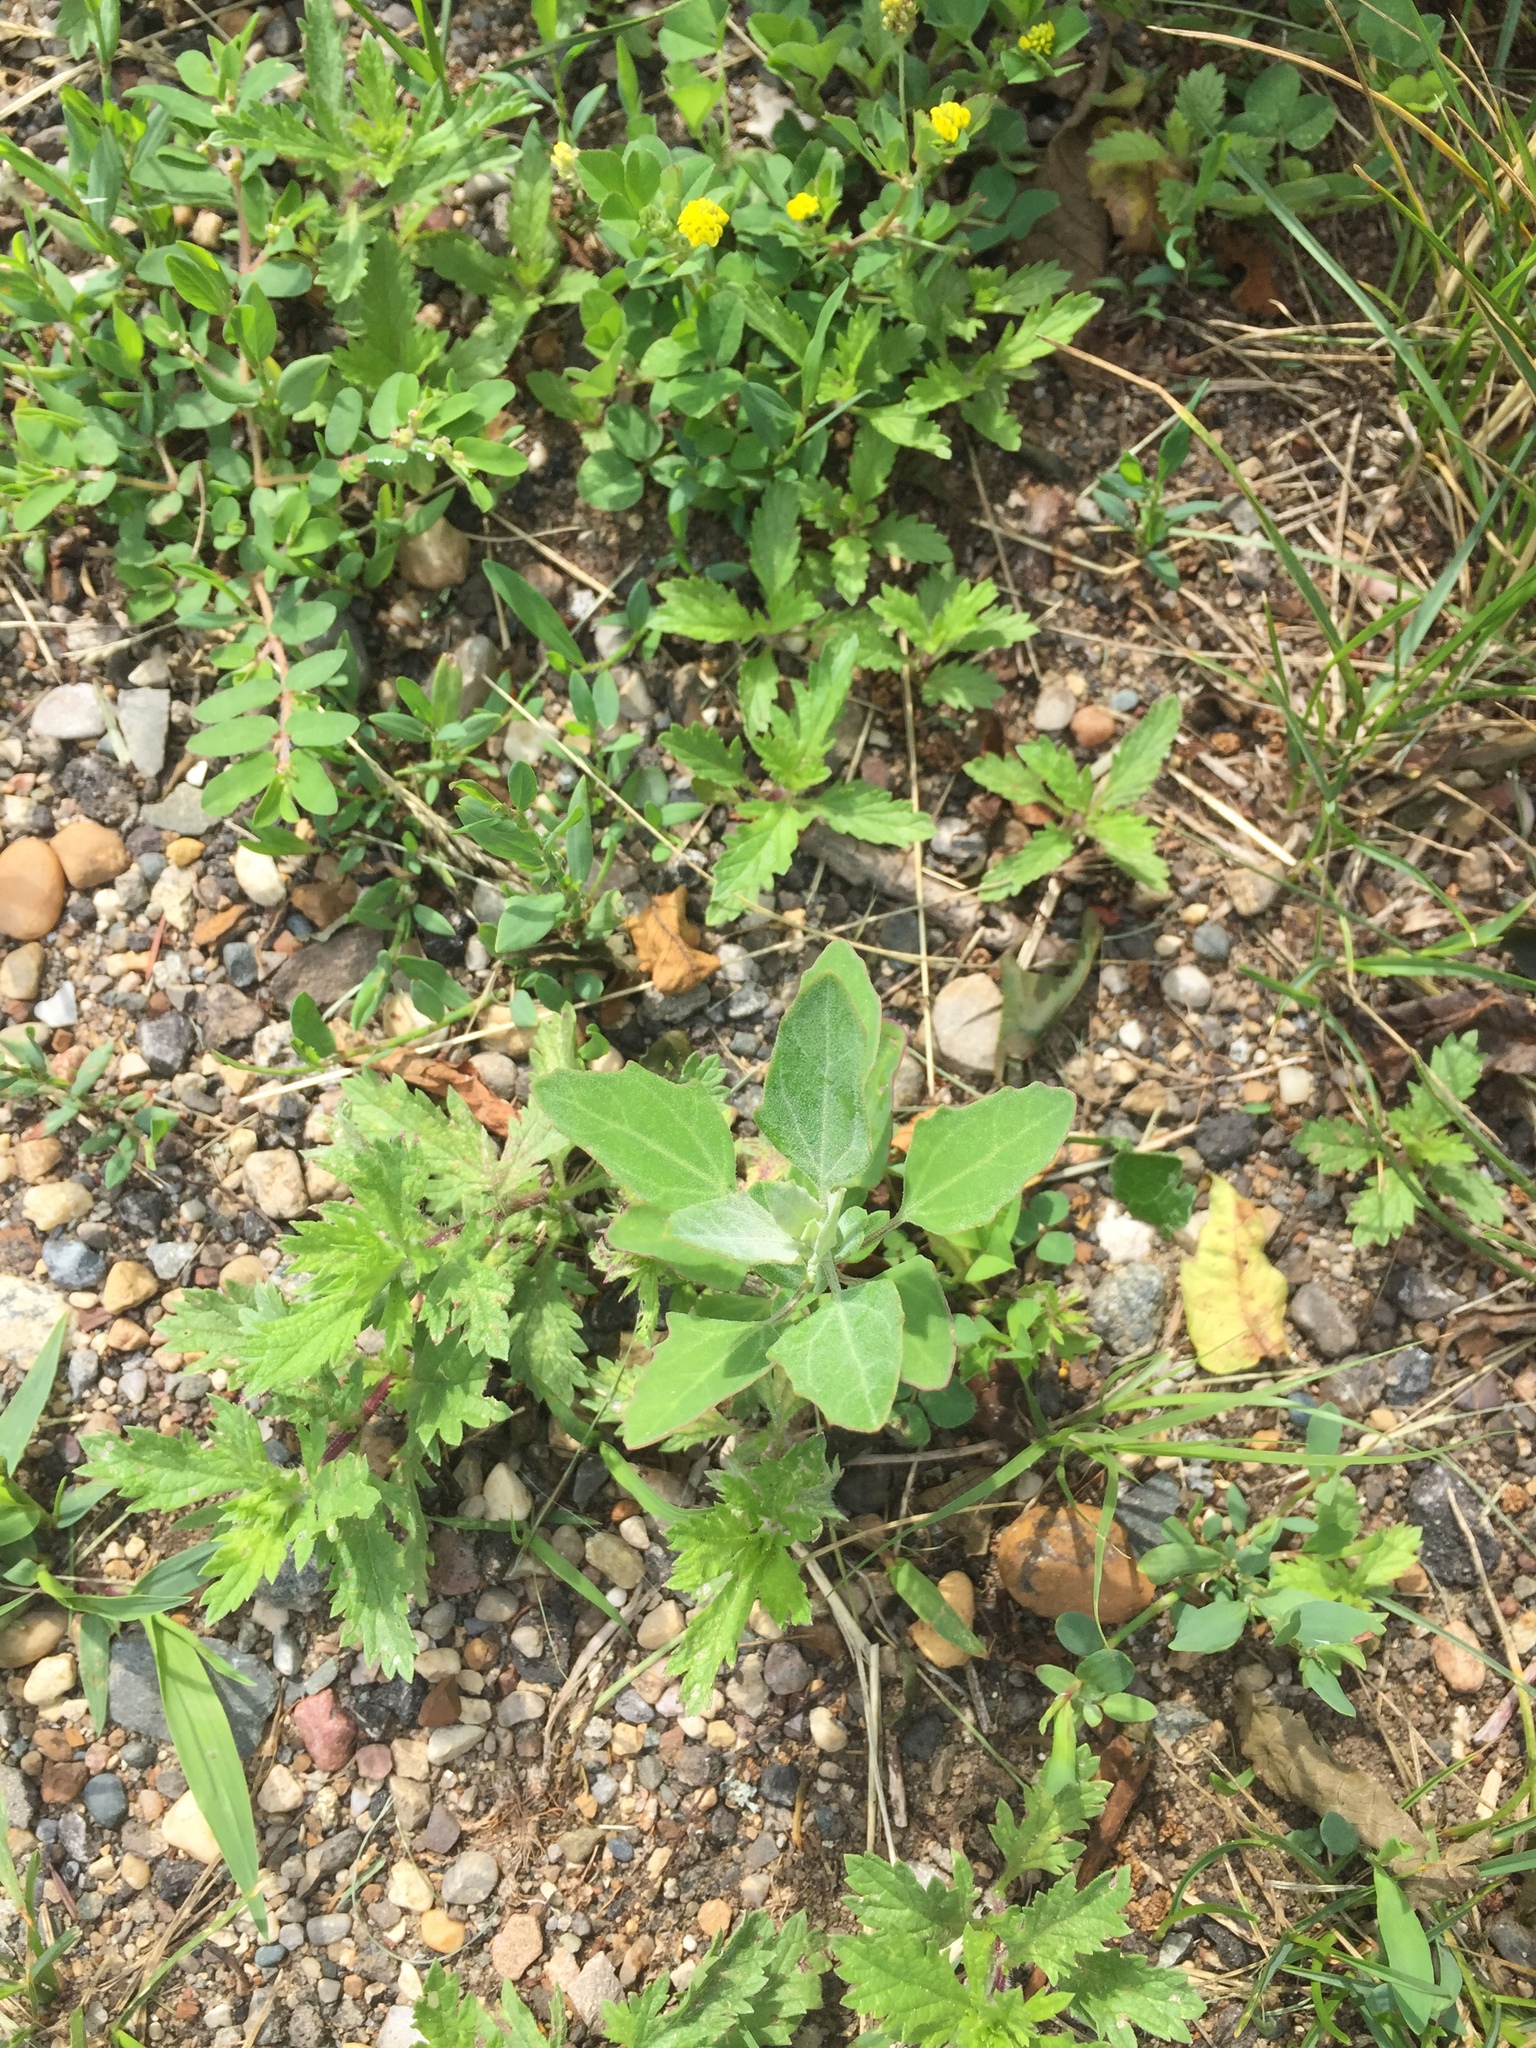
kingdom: Plantae
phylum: Tracheophyta
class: Magnoliopsida
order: Caryophyllales
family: Amaranthaceae
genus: Chenopodium
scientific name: Chenopodium album
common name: Fat-hen
